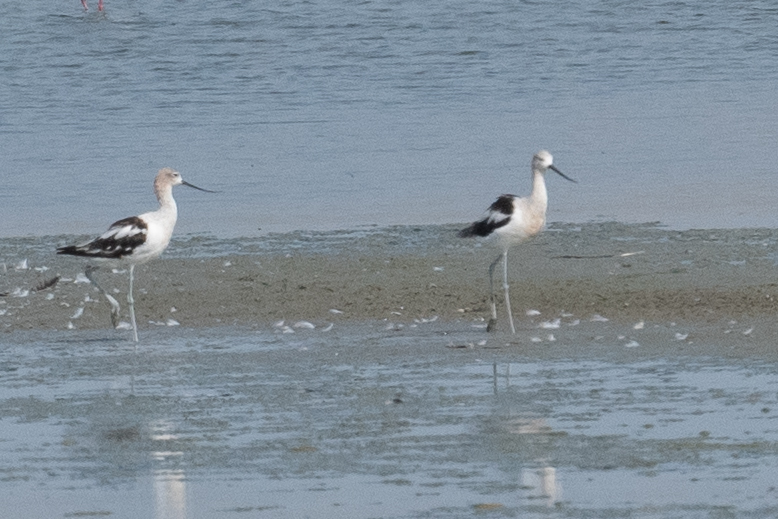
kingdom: Animalia
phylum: Chordata
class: Aves
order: Charadriiformes
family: Recurvirostridae
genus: Recurvirostra
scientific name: Recurvirostra americana
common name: American avocet
